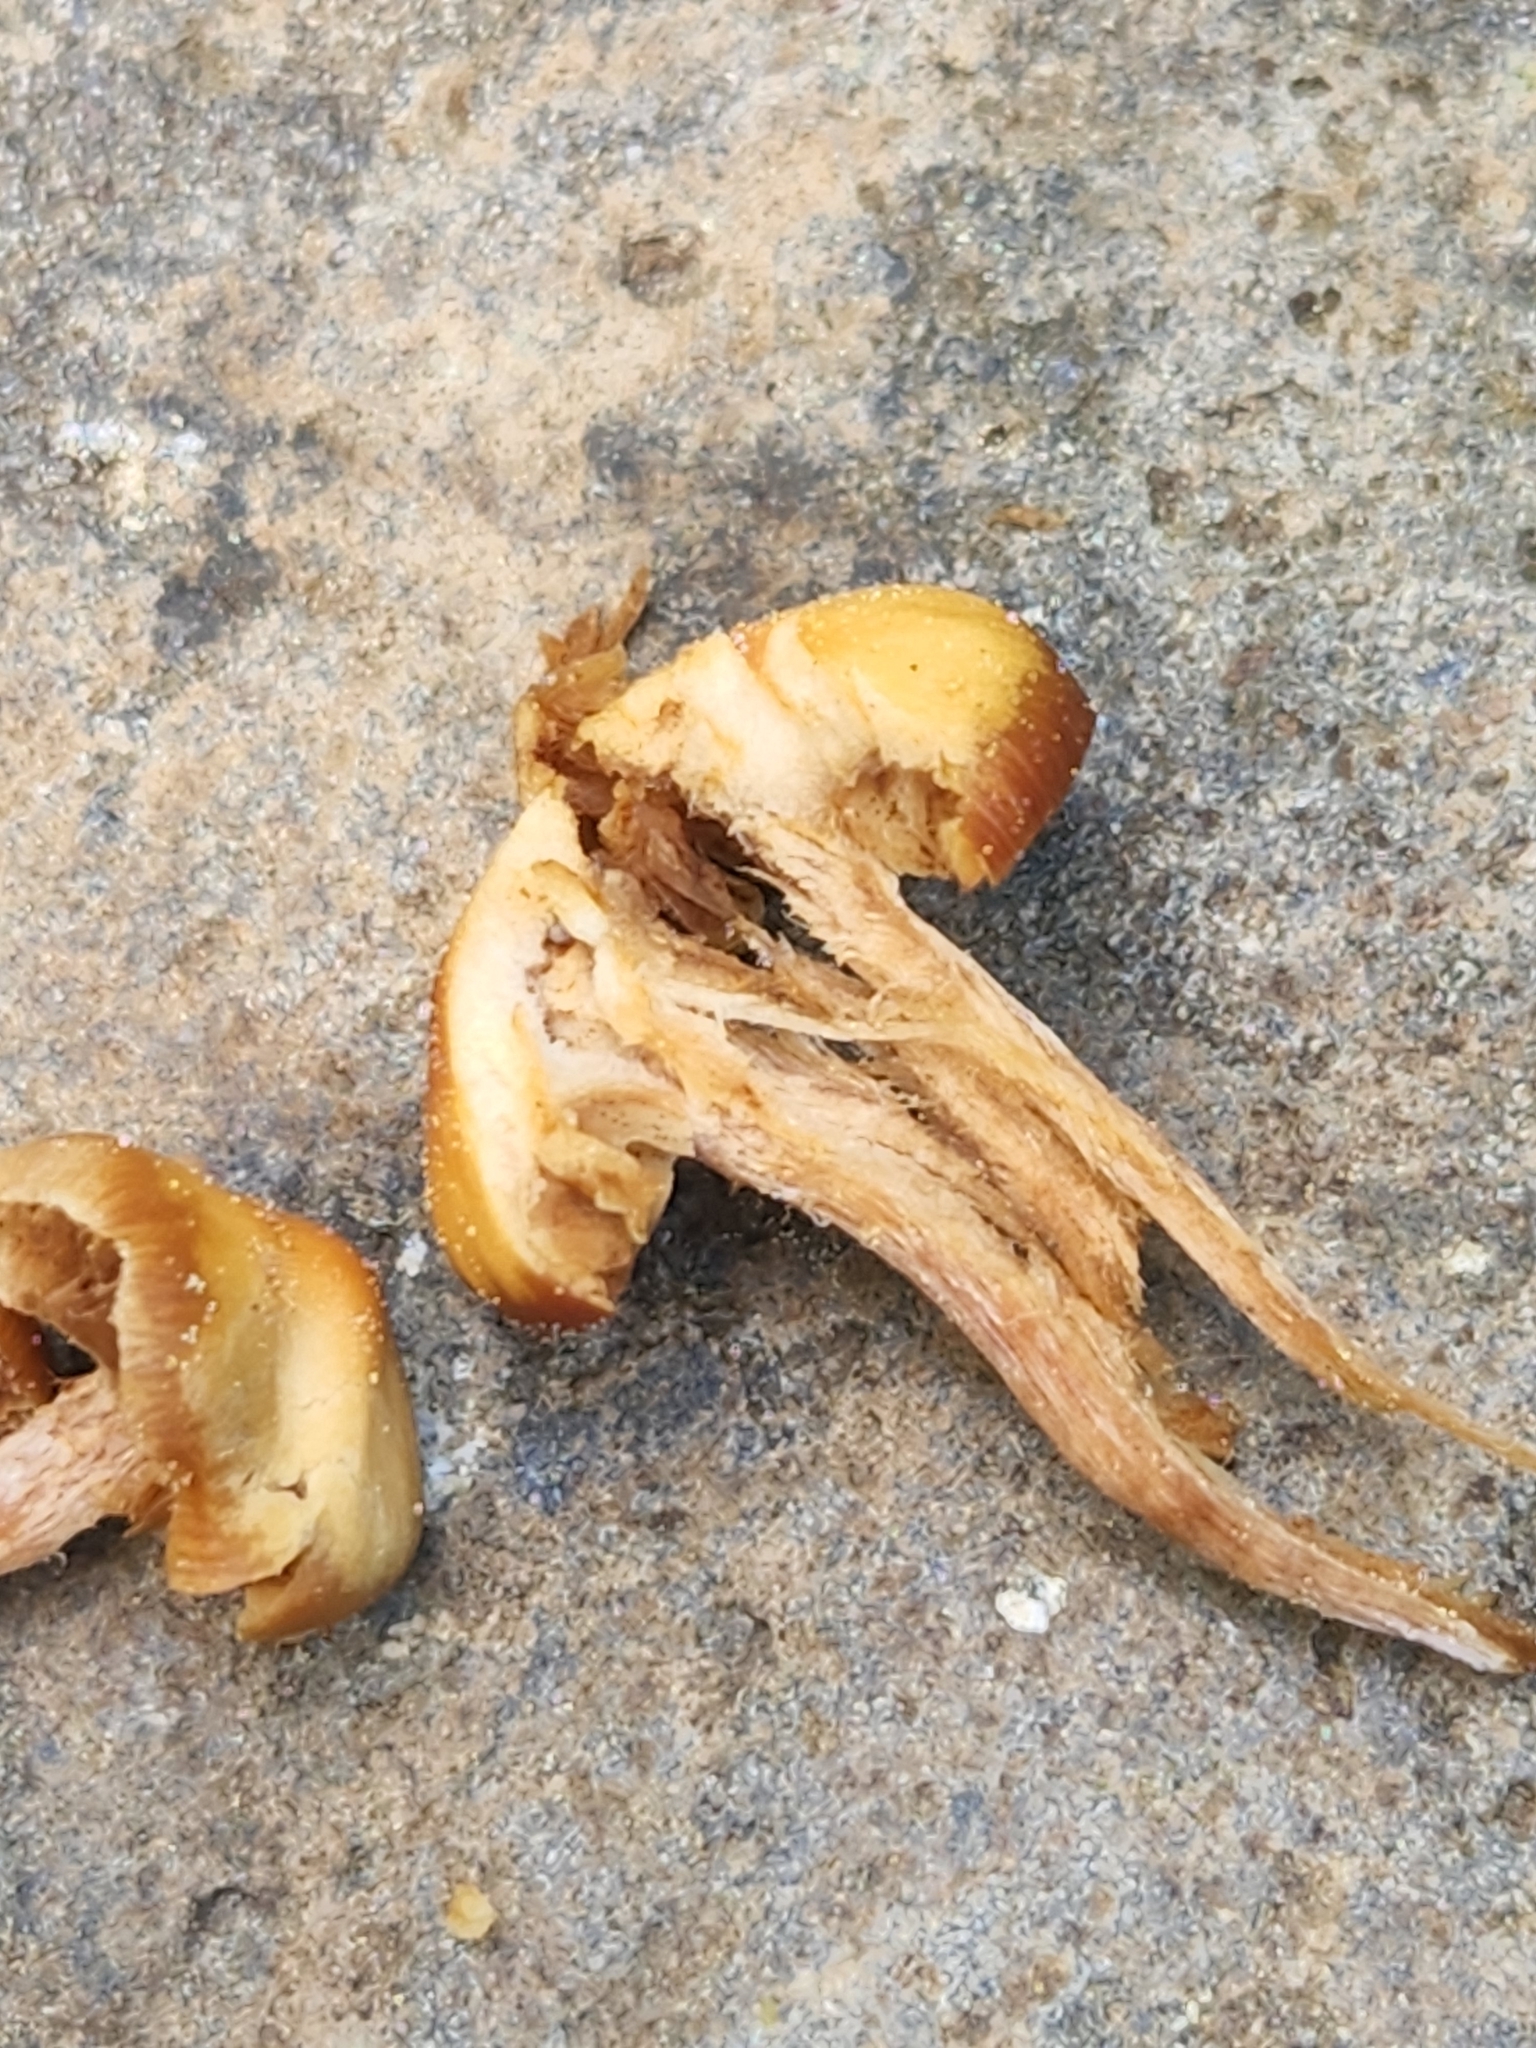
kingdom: Fungi
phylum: Basidiomycota
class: Agaricomycetes
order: Agaricales
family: Strophariaceae
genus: Pholiota
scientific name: Pholiota lignicola
